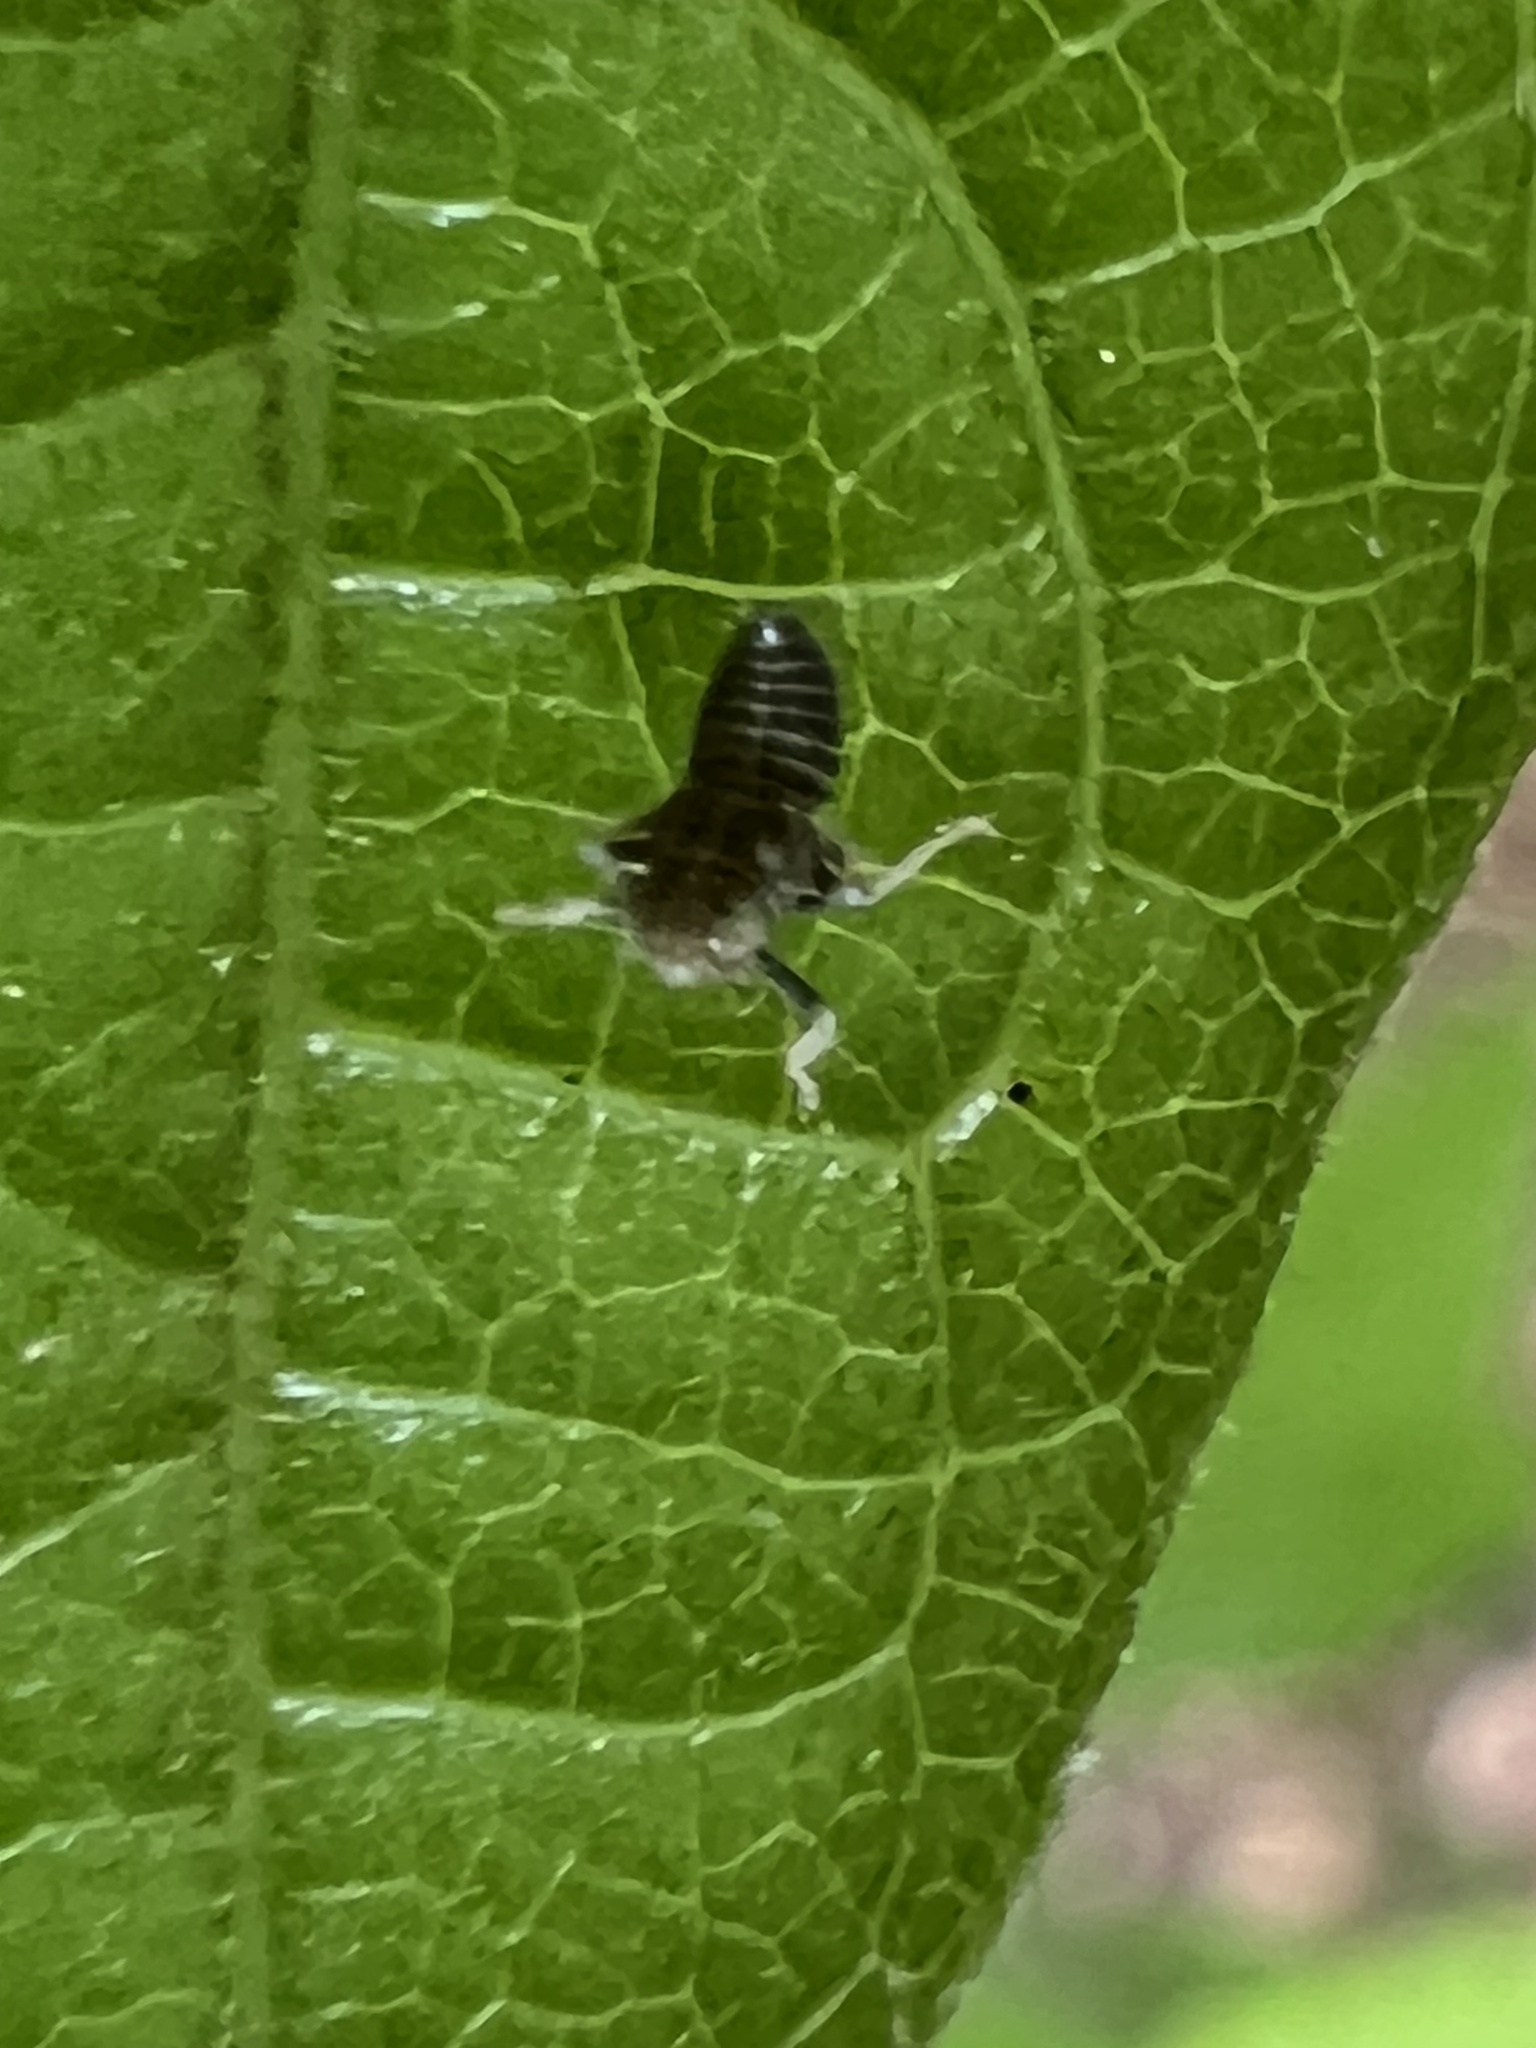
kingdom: Animalia
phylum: Arthropoda
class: Insecta
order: Hemiptera
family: Cicadellidae
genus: Jikradia
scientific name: Jikradia olitoria
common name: Coppery leafhopper
